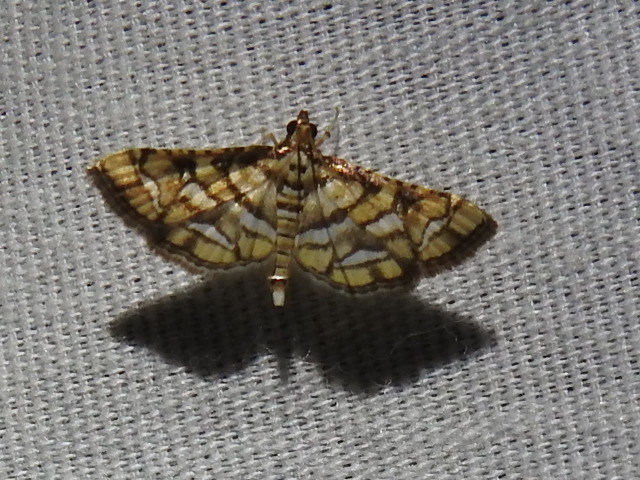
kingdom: Animalia
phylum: Arthropoda
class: Insecta
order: Lepidoptera
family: Crambidae
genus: Hileithia
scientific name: Hileithia magualis
